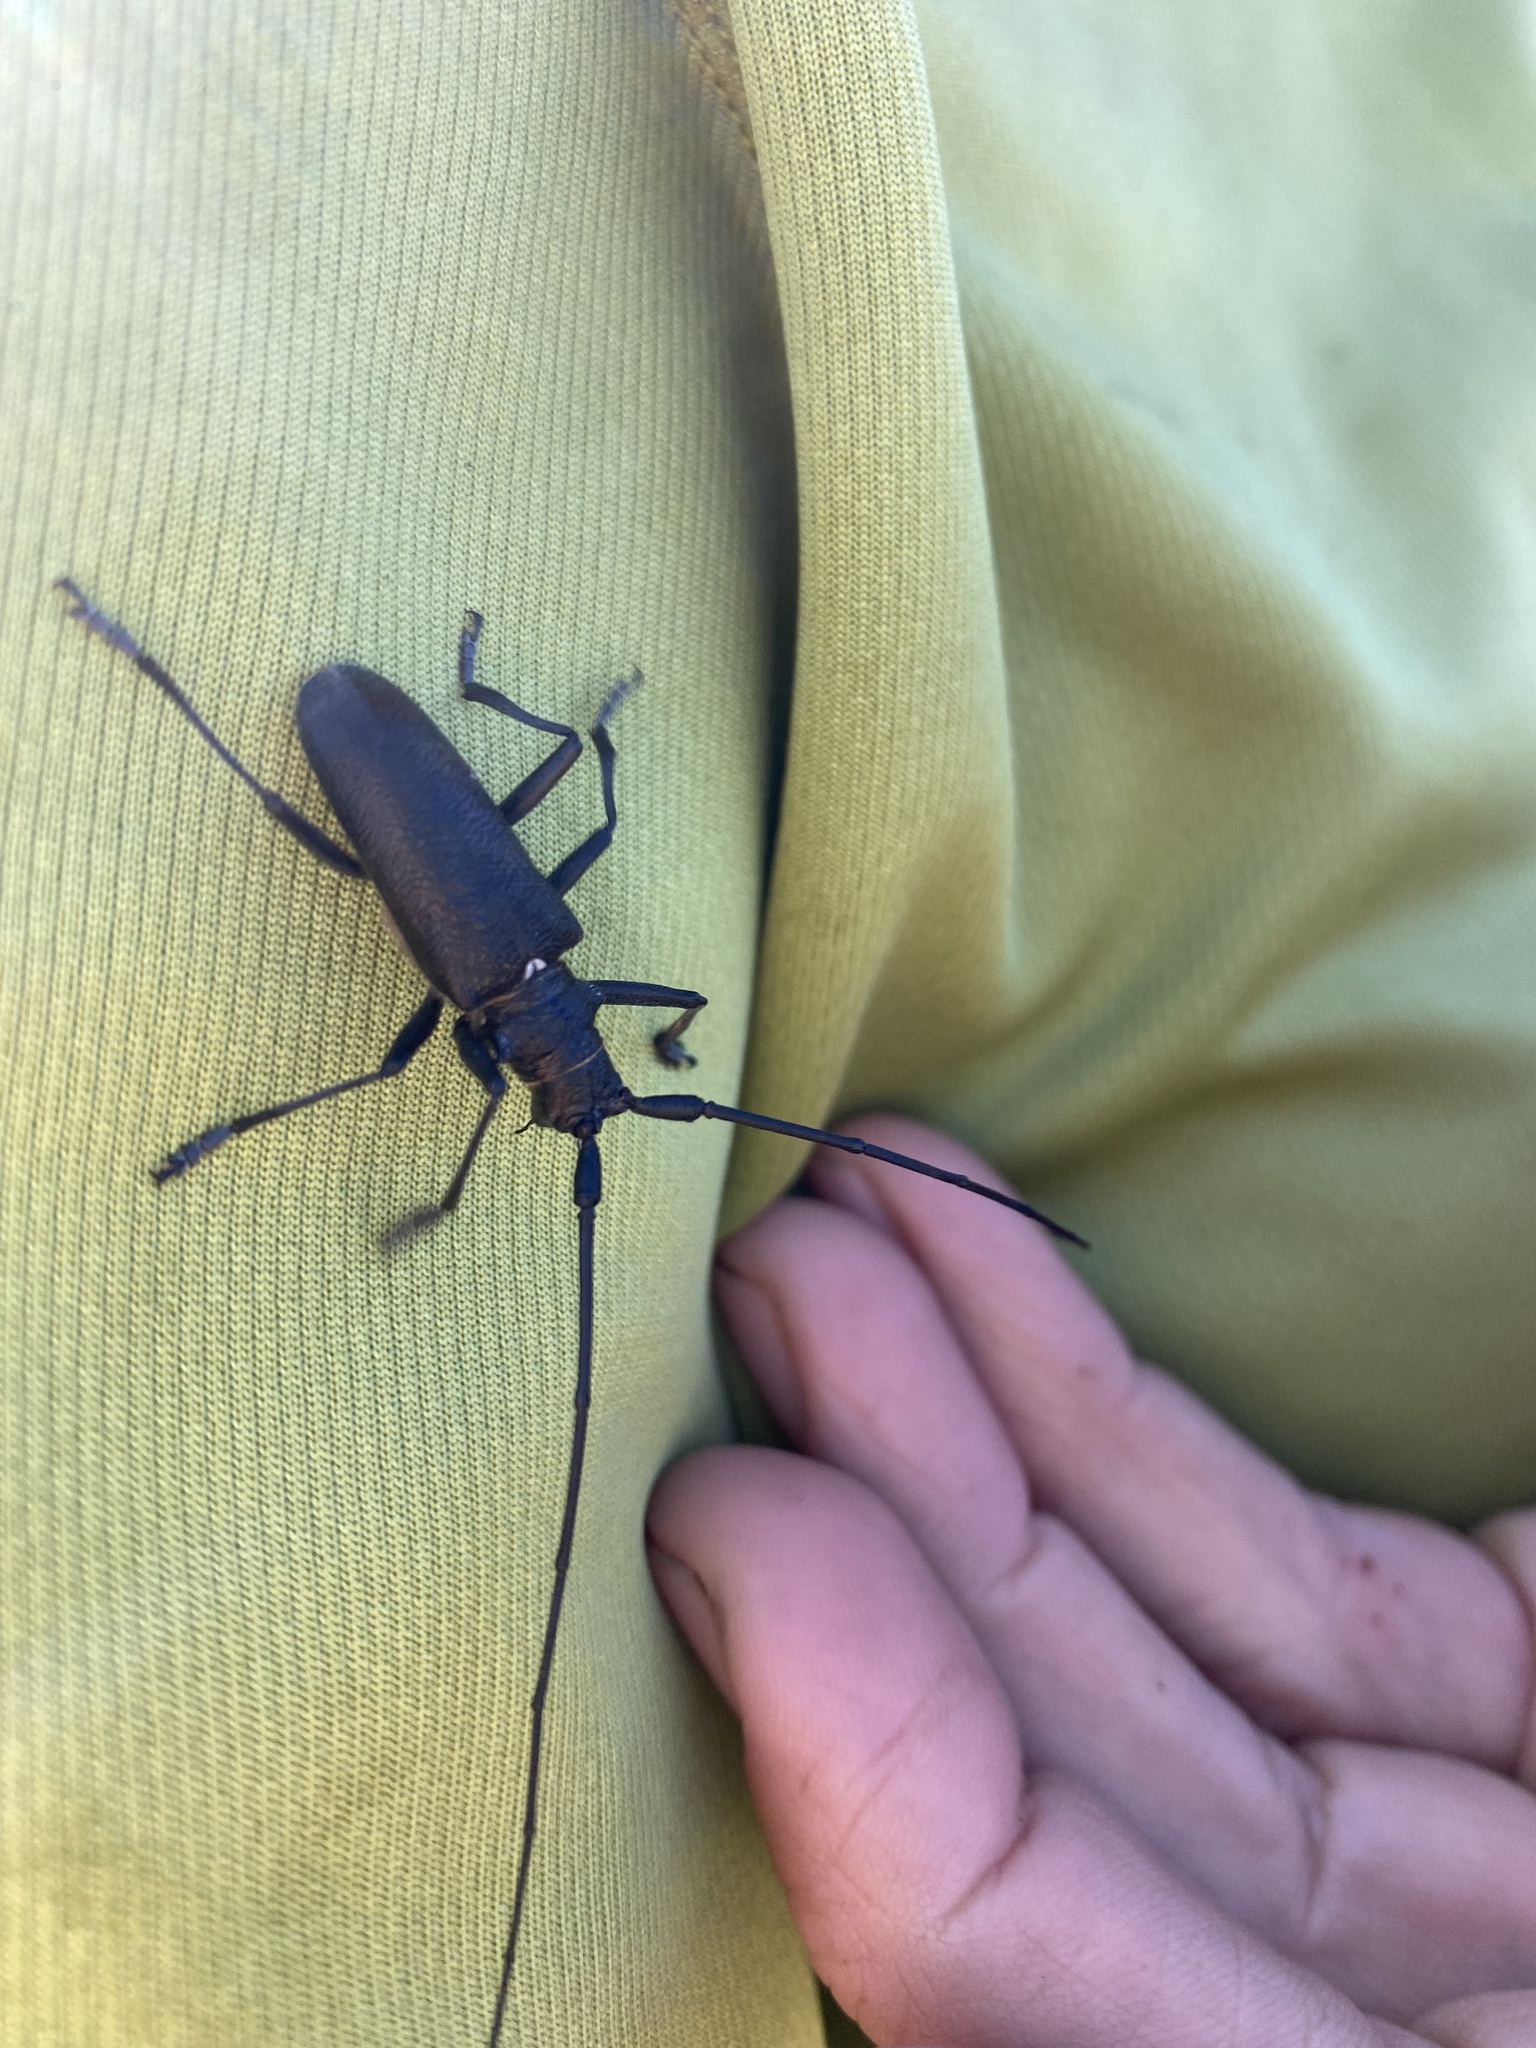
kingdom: Animalia
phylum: Arthropoda
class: Insecta
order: Coleoptera
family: Cerambycidae
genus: Monochamus
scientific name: Monochamus sutor
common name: Pine sawyer
